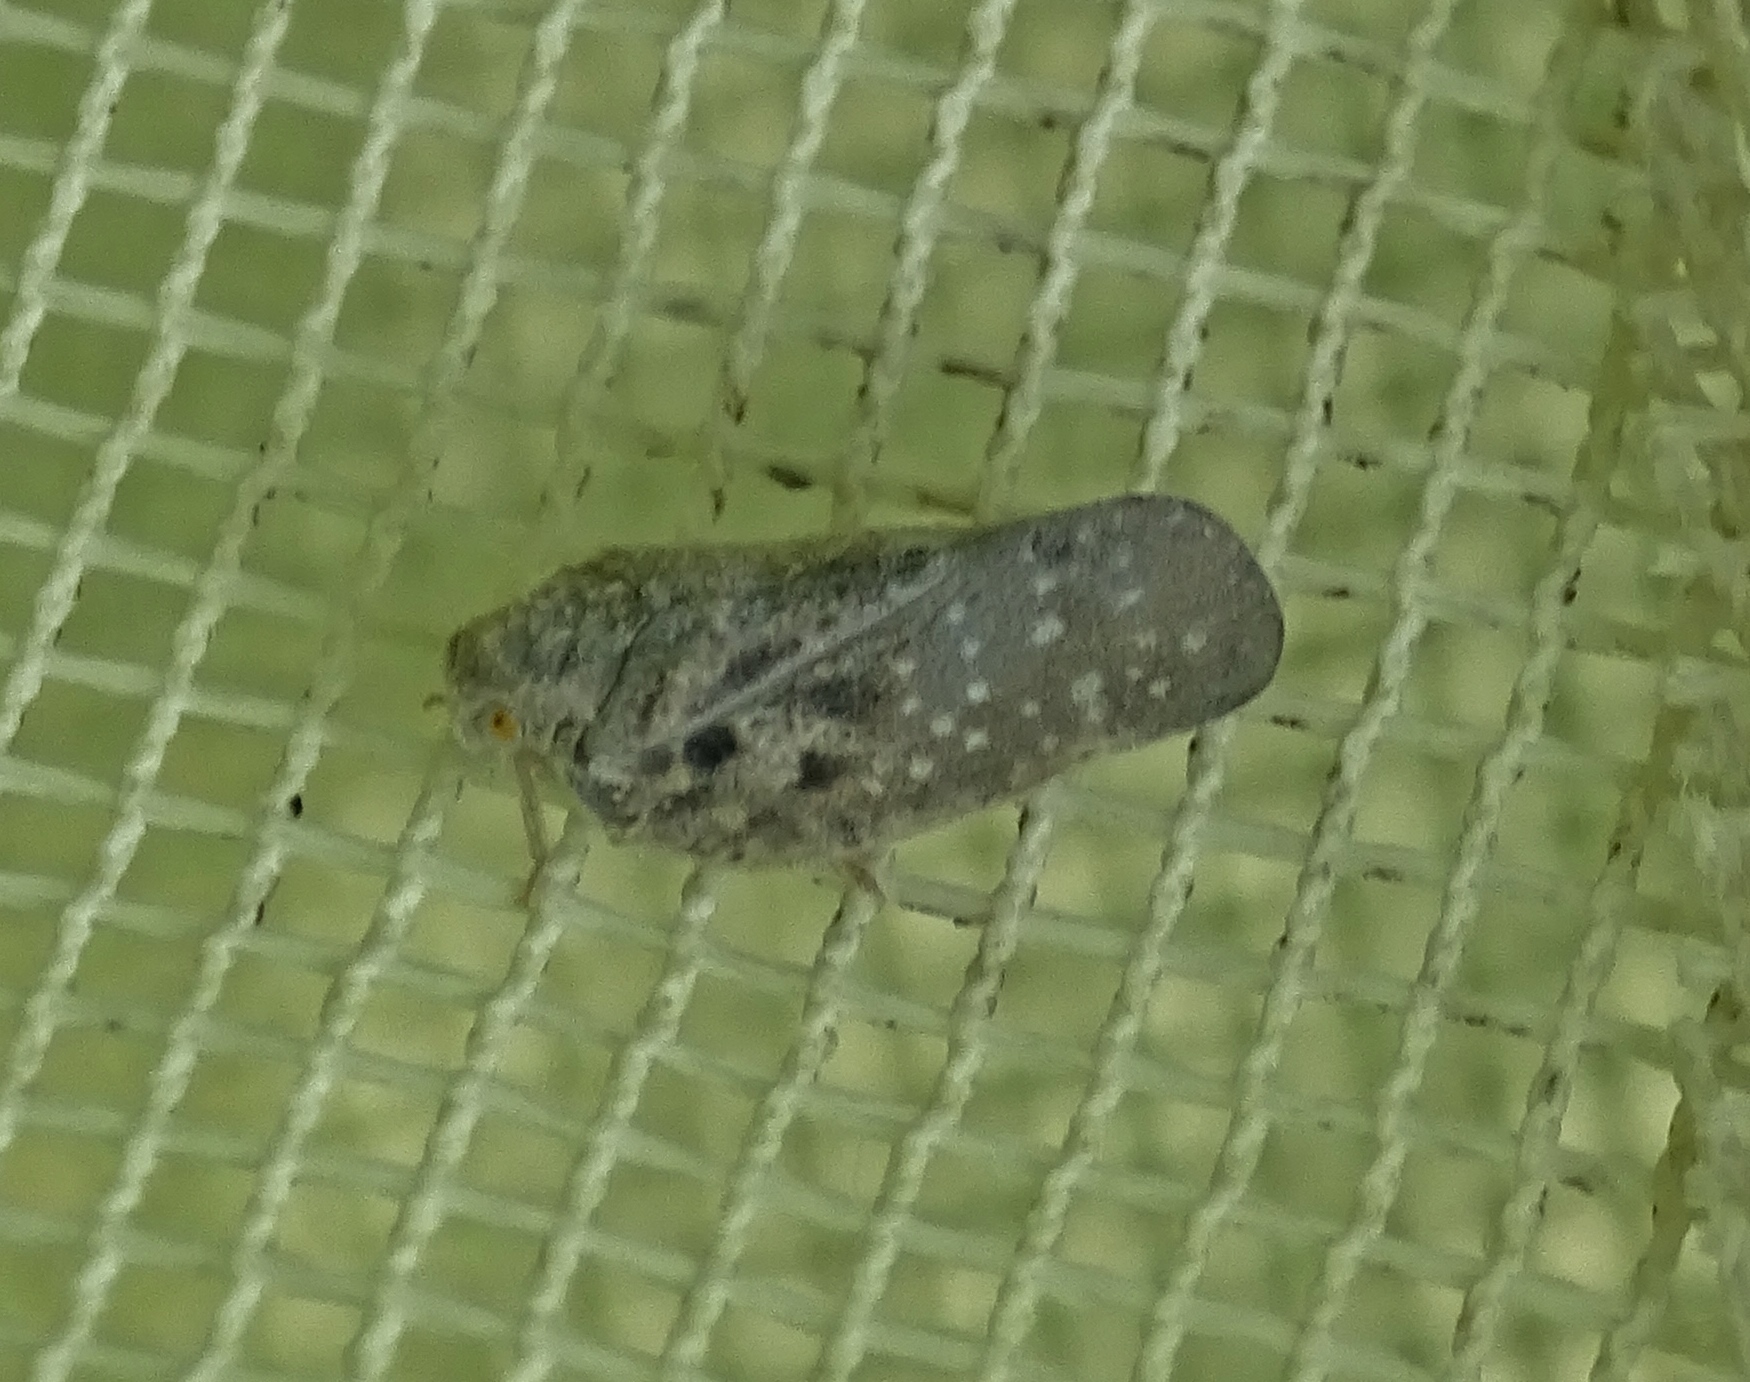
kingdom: Animalia
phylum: Arthropoda
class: Insecta
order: Hemiptera
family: Flatidae
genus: Metcalfa
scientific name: Metcalfa pruinosa
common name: Citrus flatid planthopper
